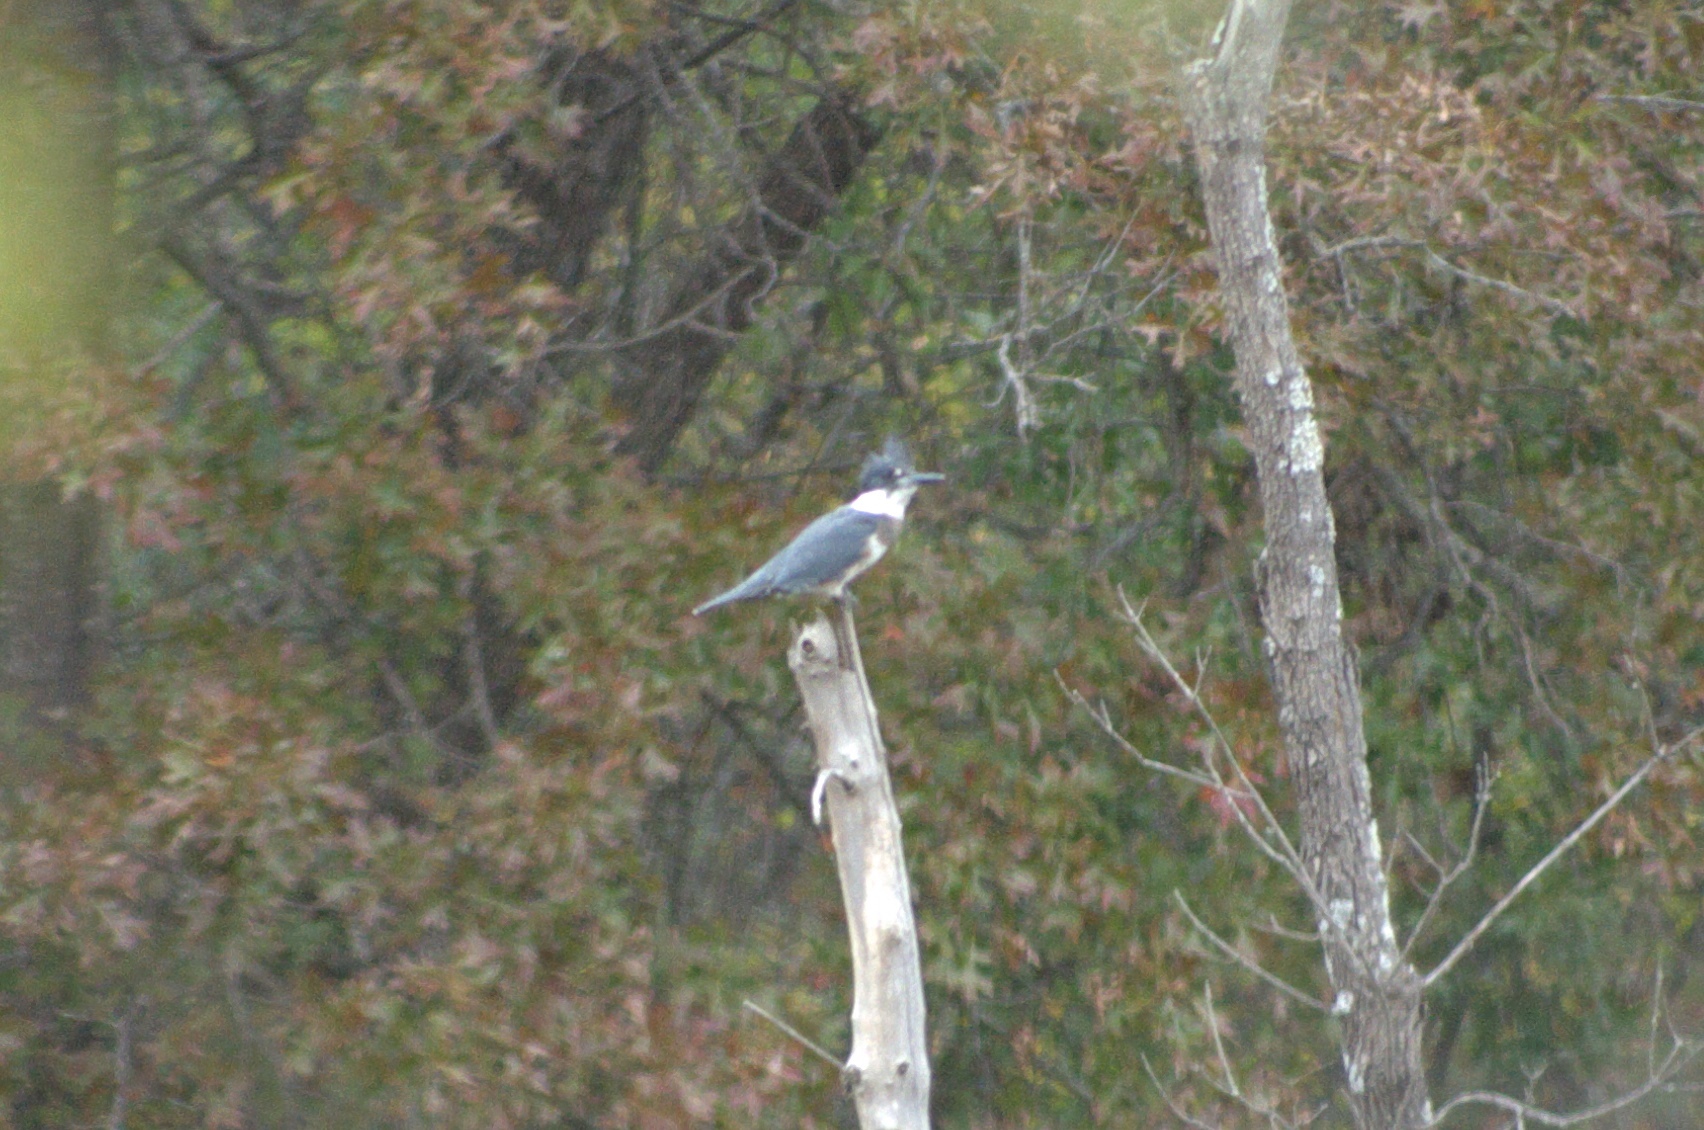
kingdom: Animalia
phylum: Chordata
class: Aves
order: Coraciiformes
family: Alcedinidae
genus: Megaceryle
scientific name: Megaceryle alcyon
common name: Belted kingfisher
